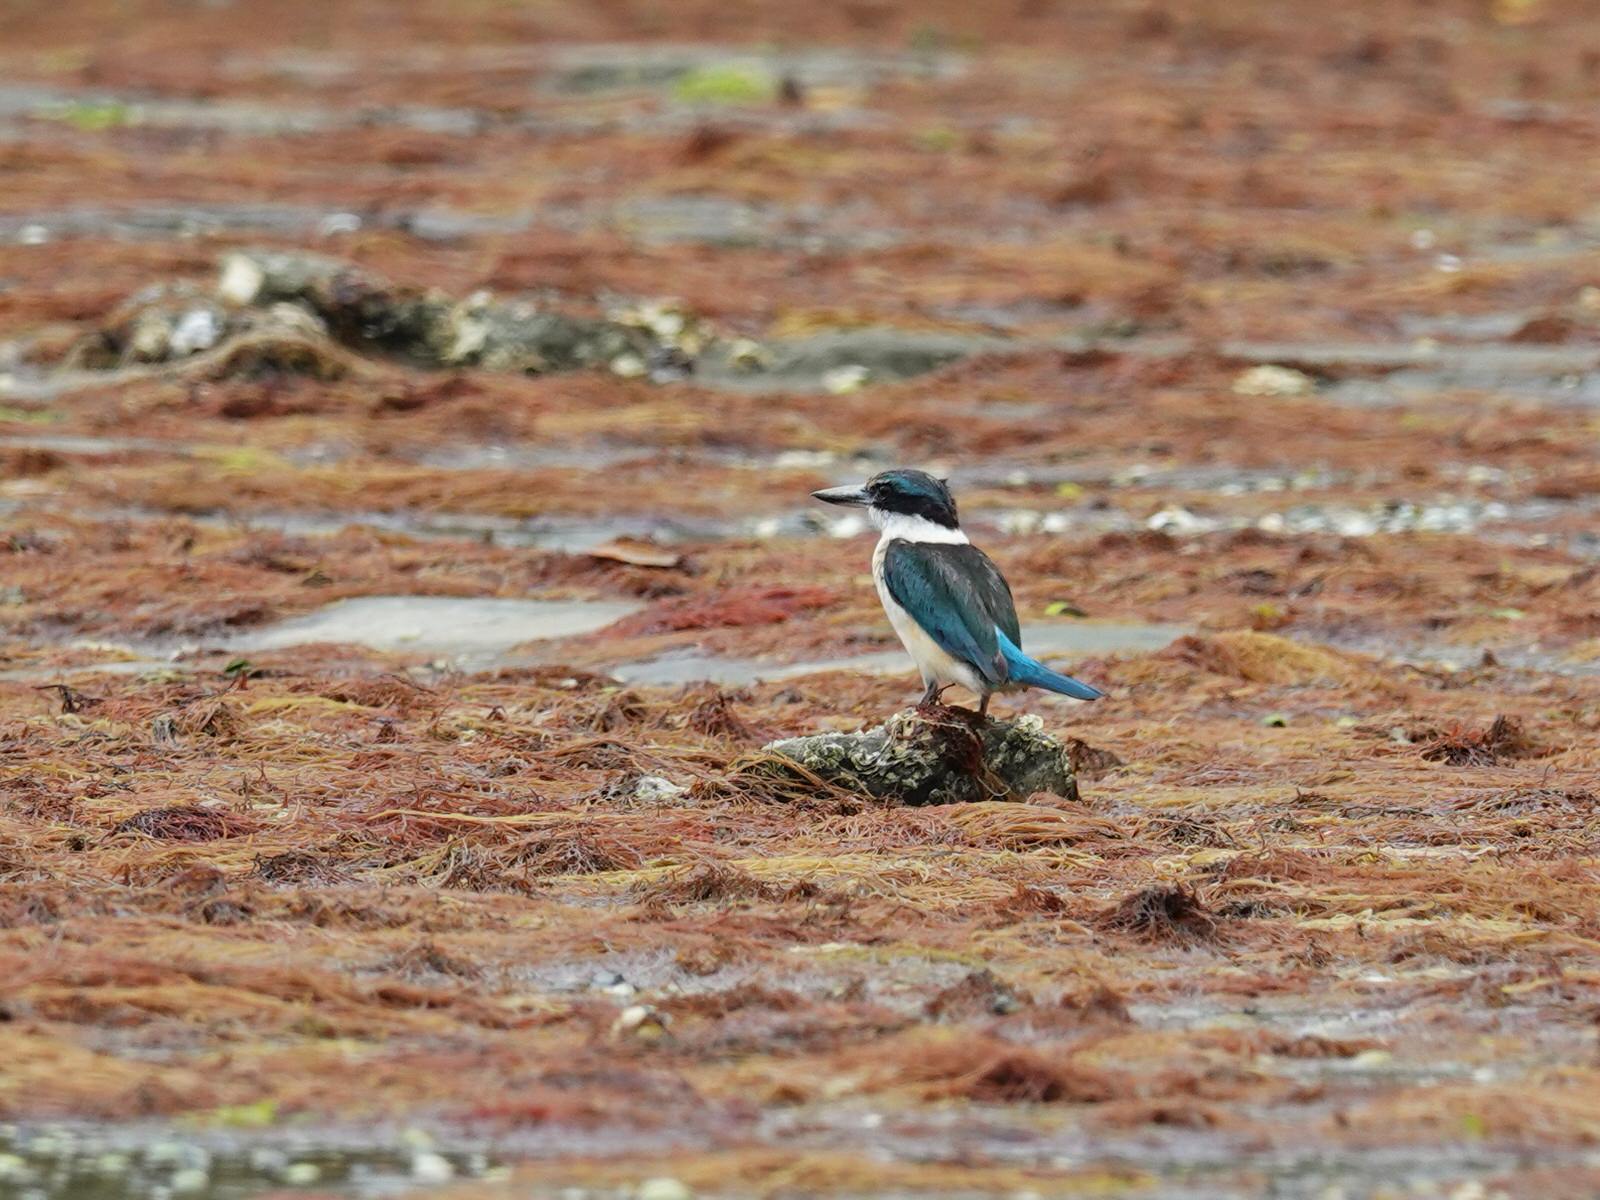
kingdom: Animalia
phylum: Chordata
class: Aves
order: Coraciiformes
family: Alcedinidae
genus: Todiramphus
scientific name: Todiramphus sanctus
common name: Sacred kingfisher
